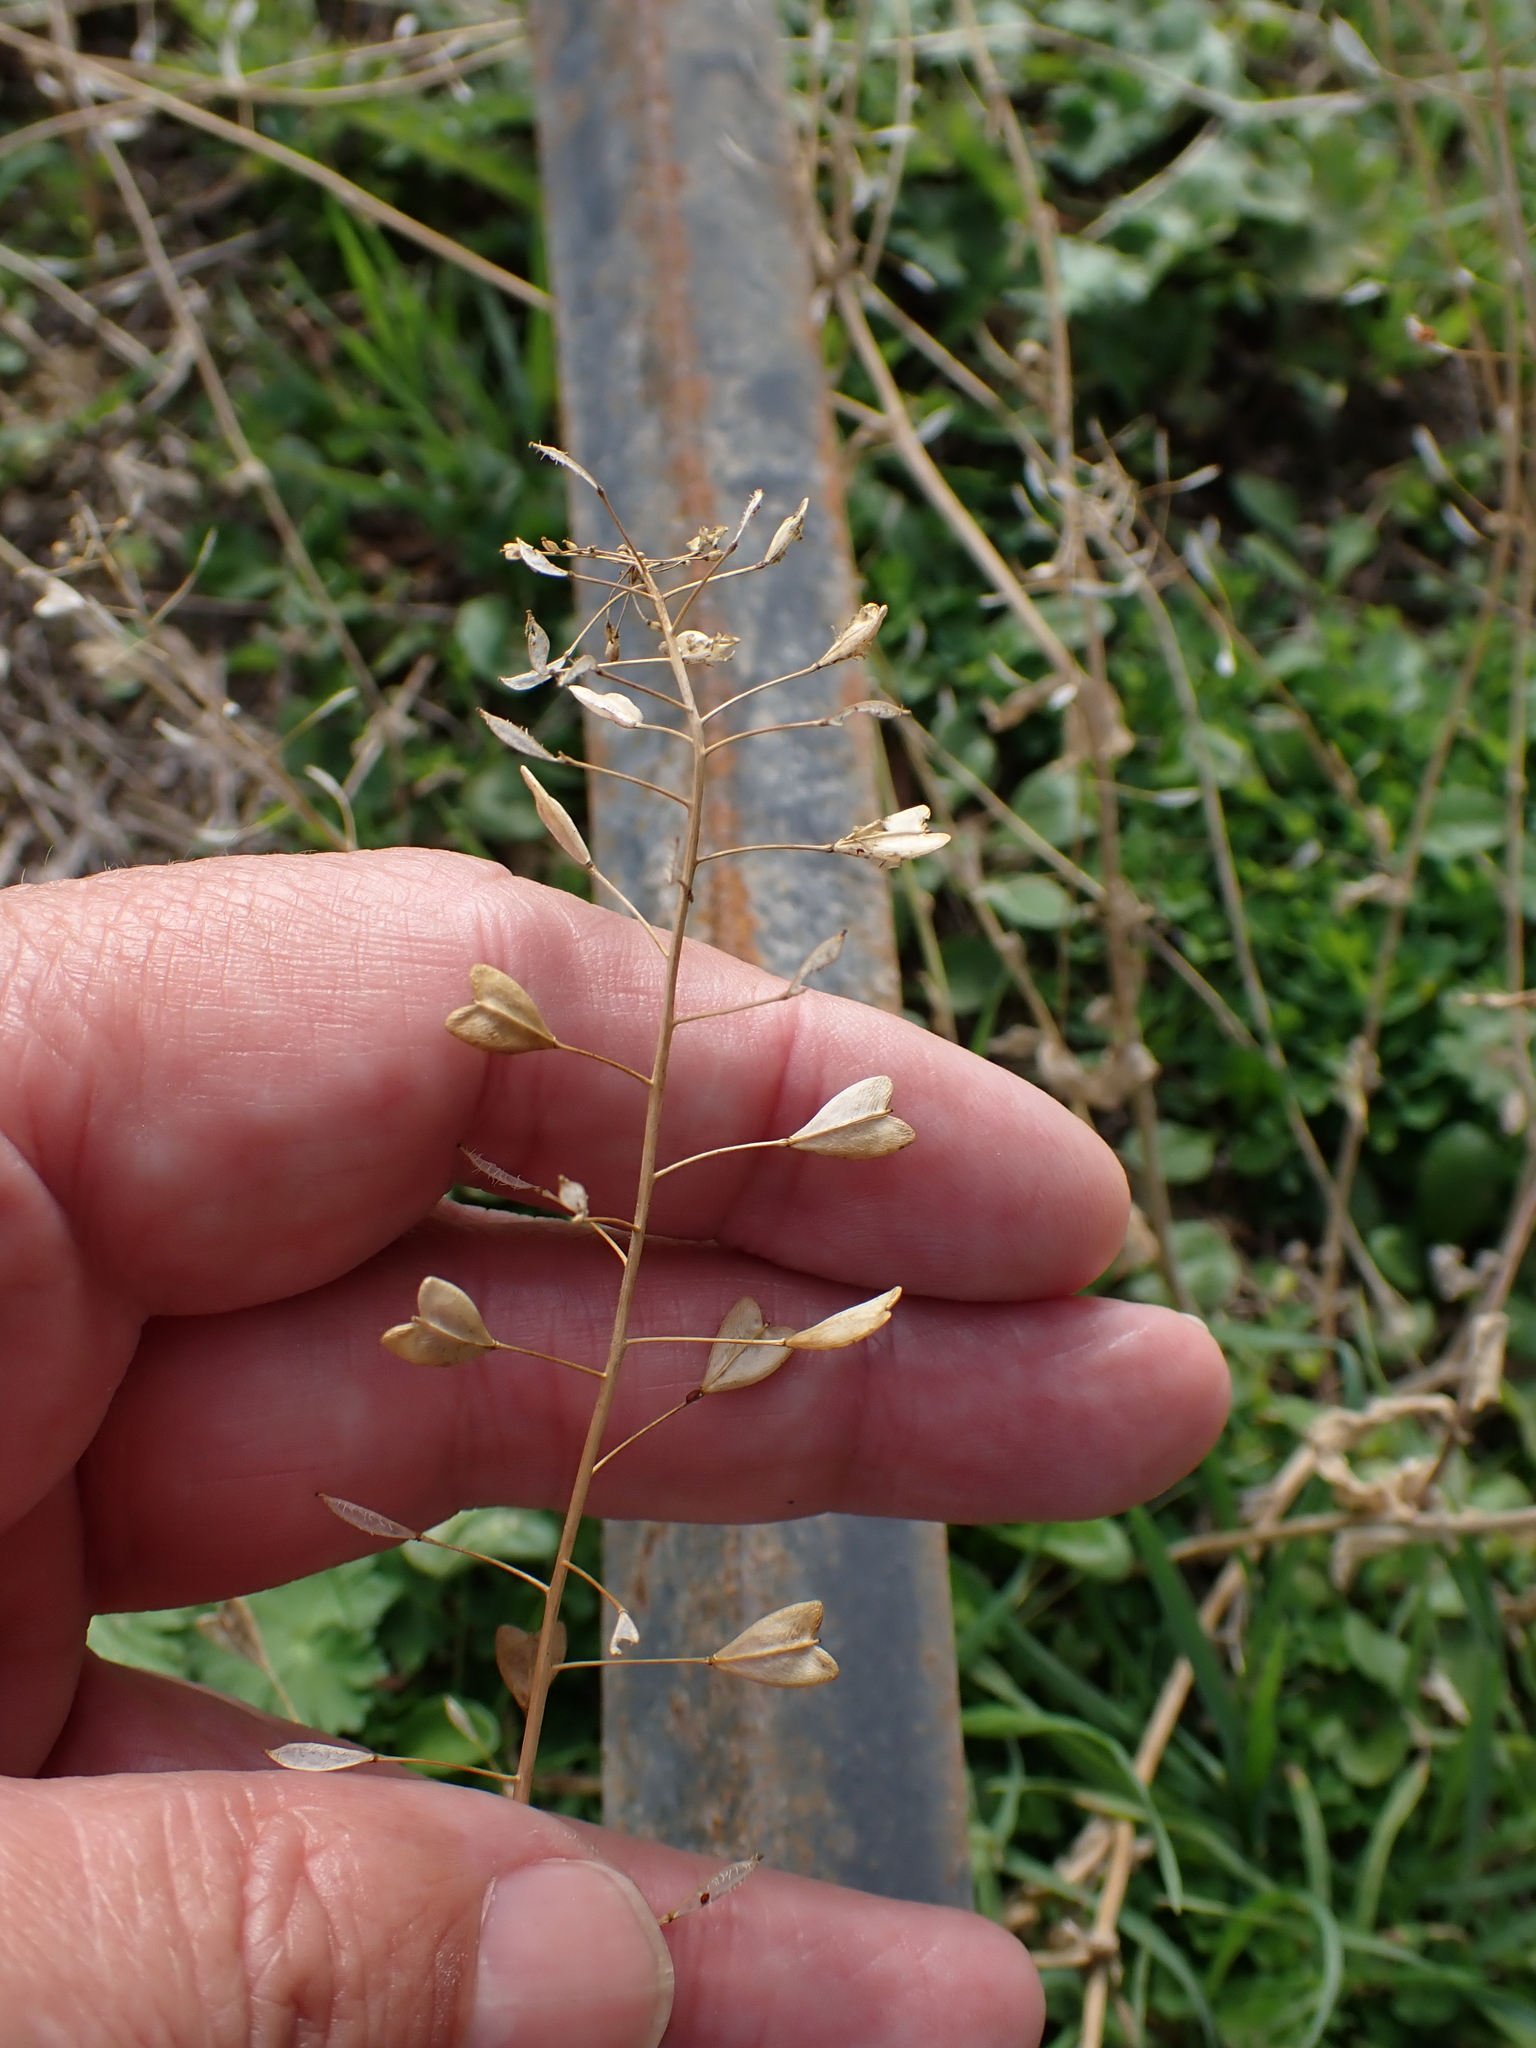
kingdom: Plantae
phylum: Tracheophyta
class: Magnoliopsida
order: Brassicales
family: Brassicaceae
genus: Capsella
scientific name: Capsella bursa-pastoris
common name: Shepherd's purse
